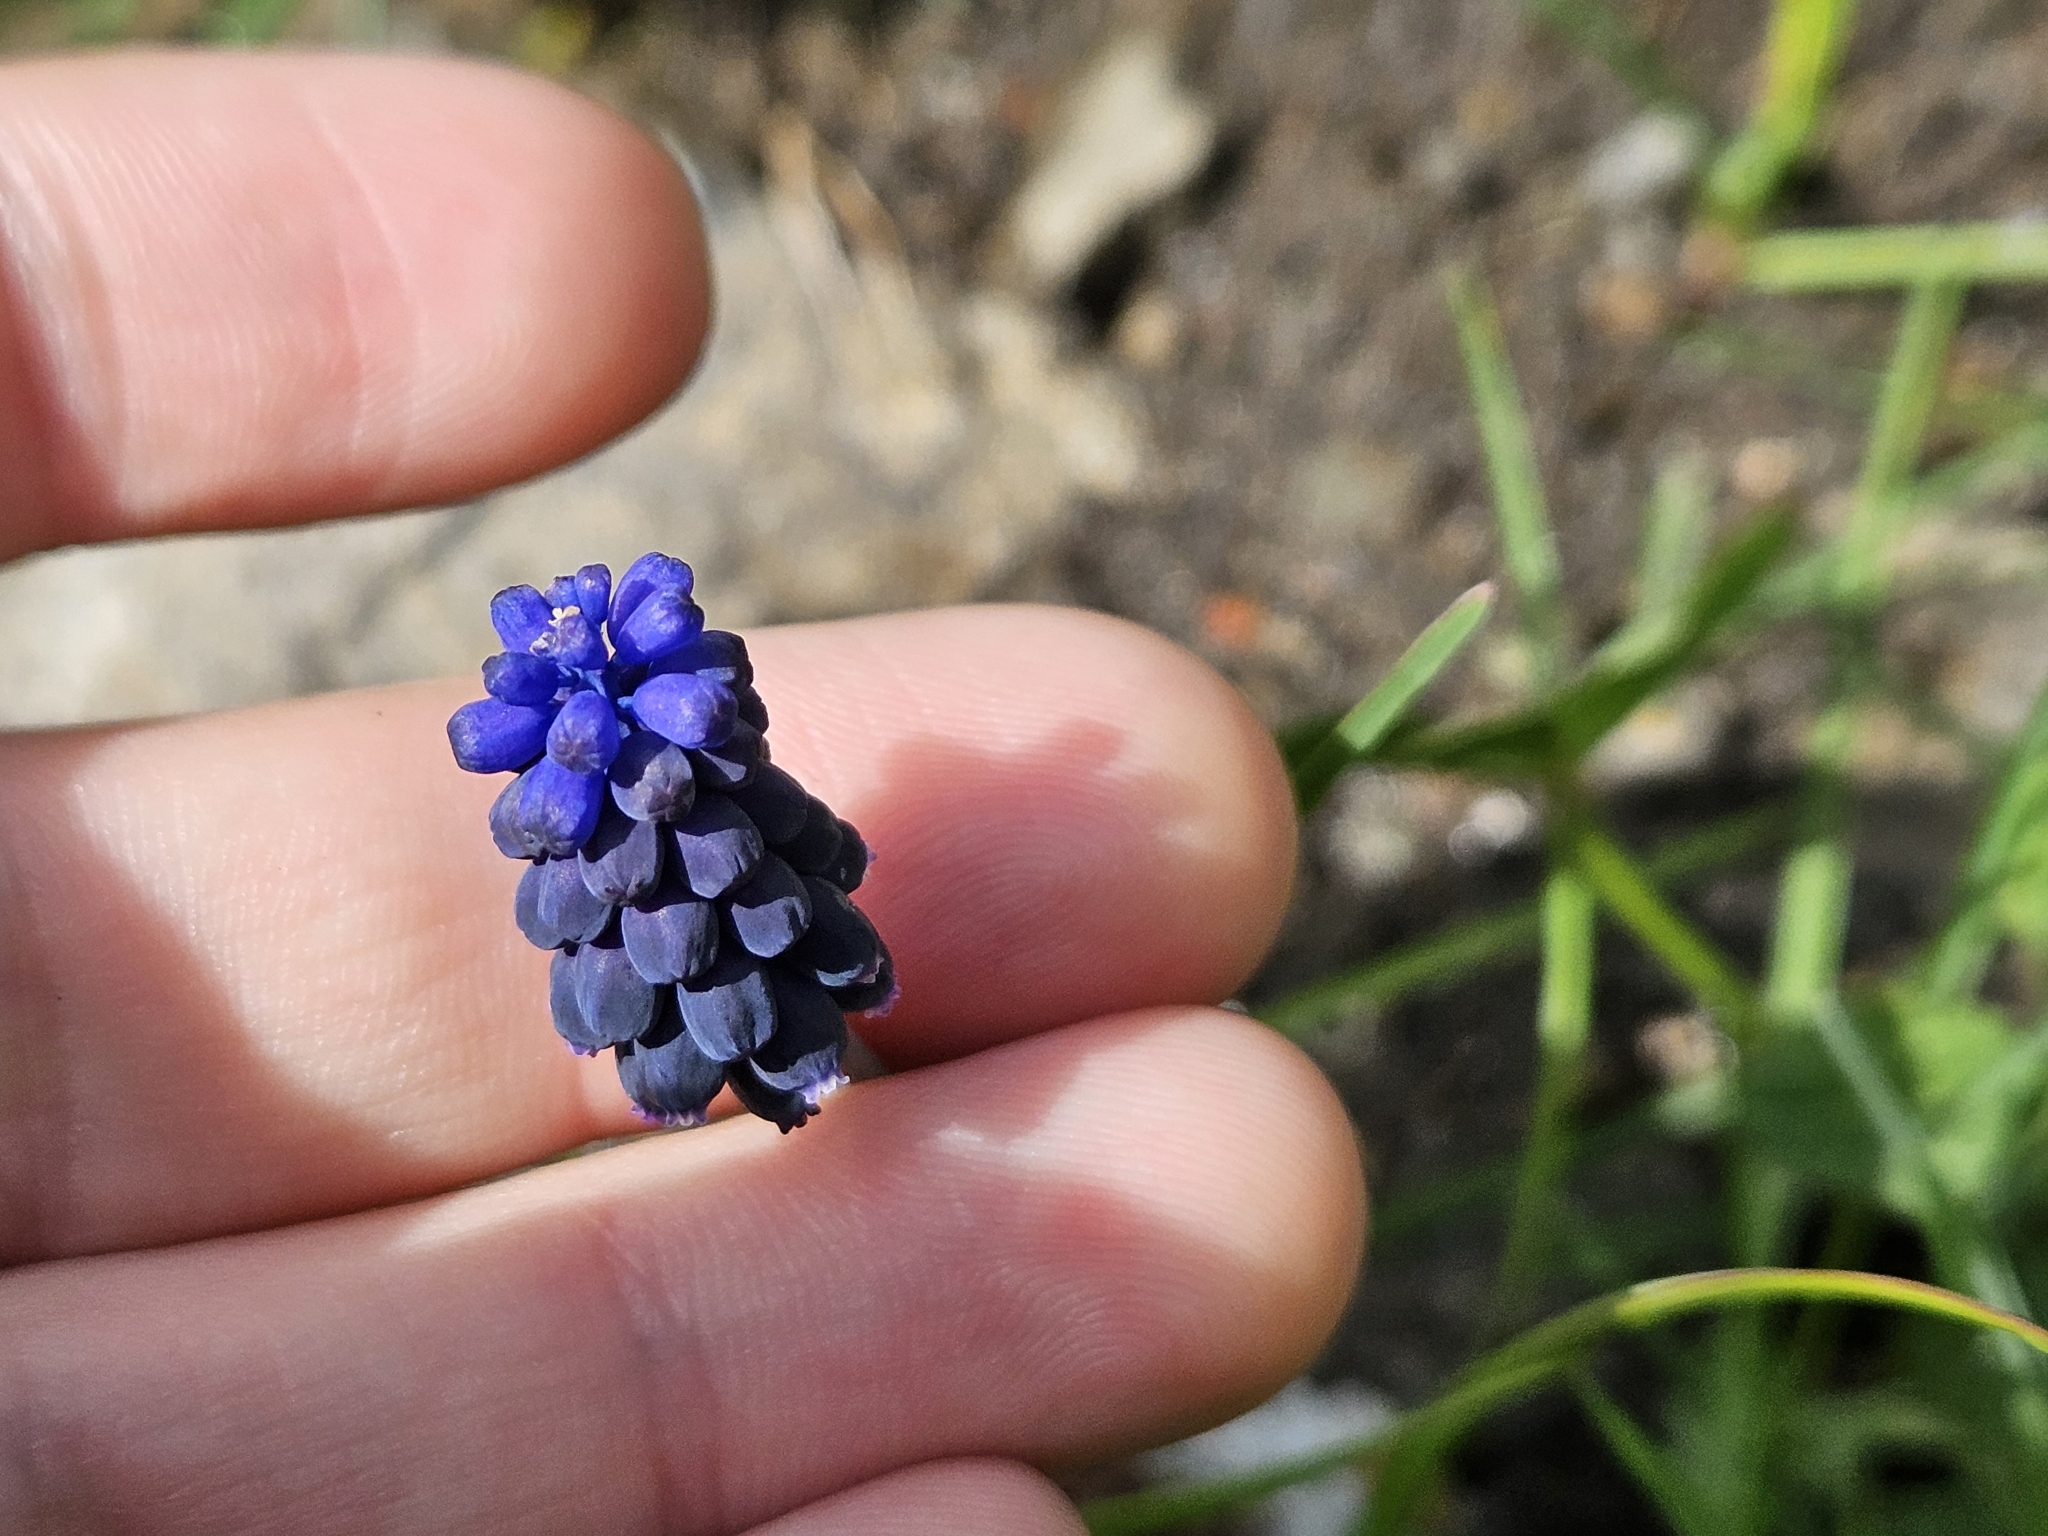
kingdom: Plantae
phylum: Tracheophyta
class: Liliopsida
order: Asparagales
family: Asparagaceae
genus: Muscari
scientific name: Muscari neglectum
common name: Grape-hyacinth
